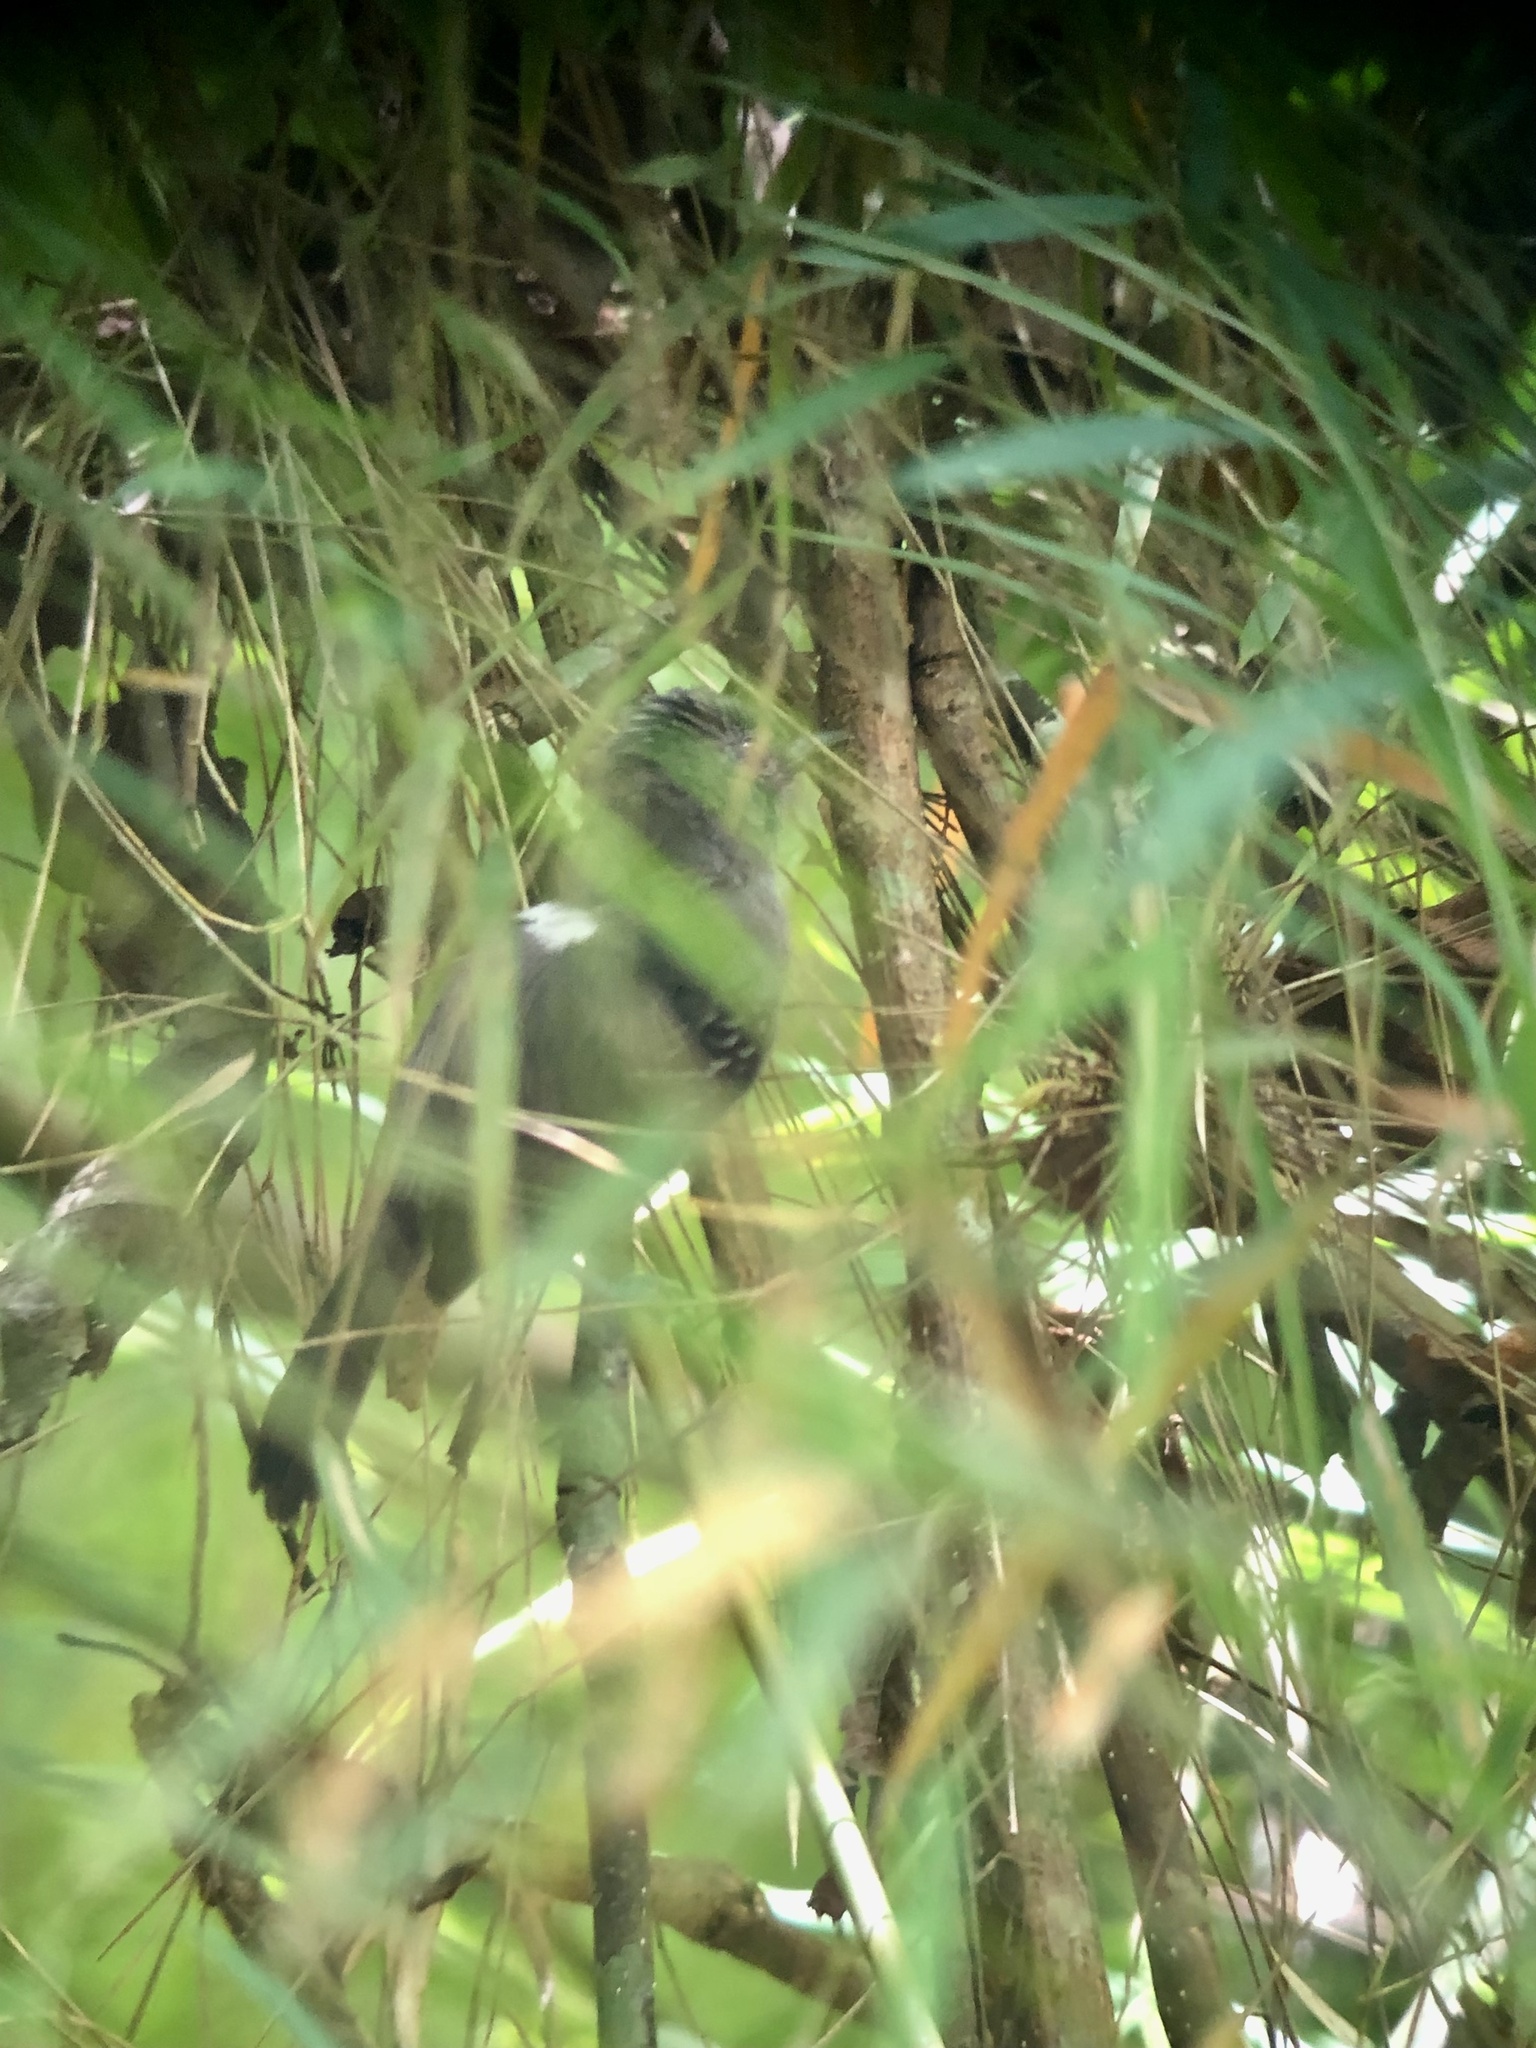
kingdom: Animalia
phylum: Chordata
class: Aves
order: Passeriformes
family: Thamnophilidae
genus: Cercomacra
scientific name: Cercomacra tyrannina
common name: Dusky antbird
